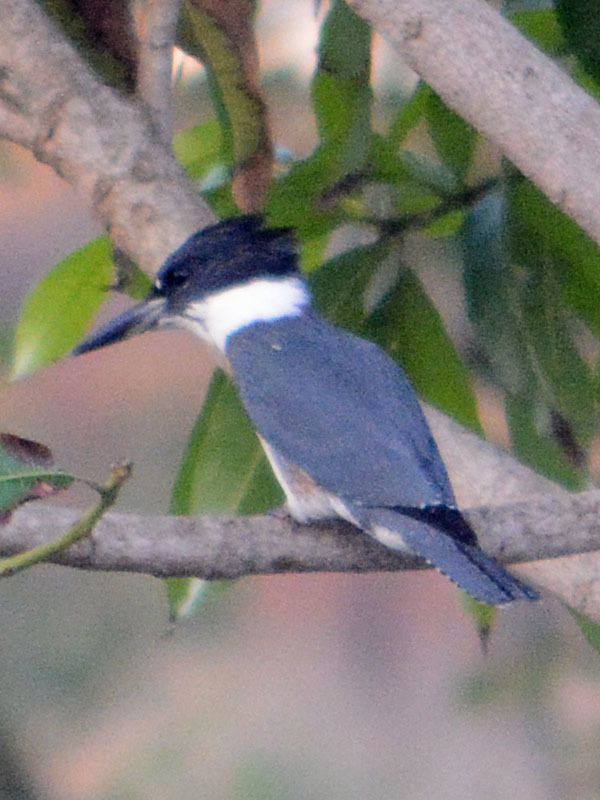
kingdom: Animalia
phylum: Chordata
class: Aves
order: Coraciiformes
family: Alcedinidae
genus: Megaceryle
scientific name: Megaceryle alcyon
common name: Belted kingfisher
